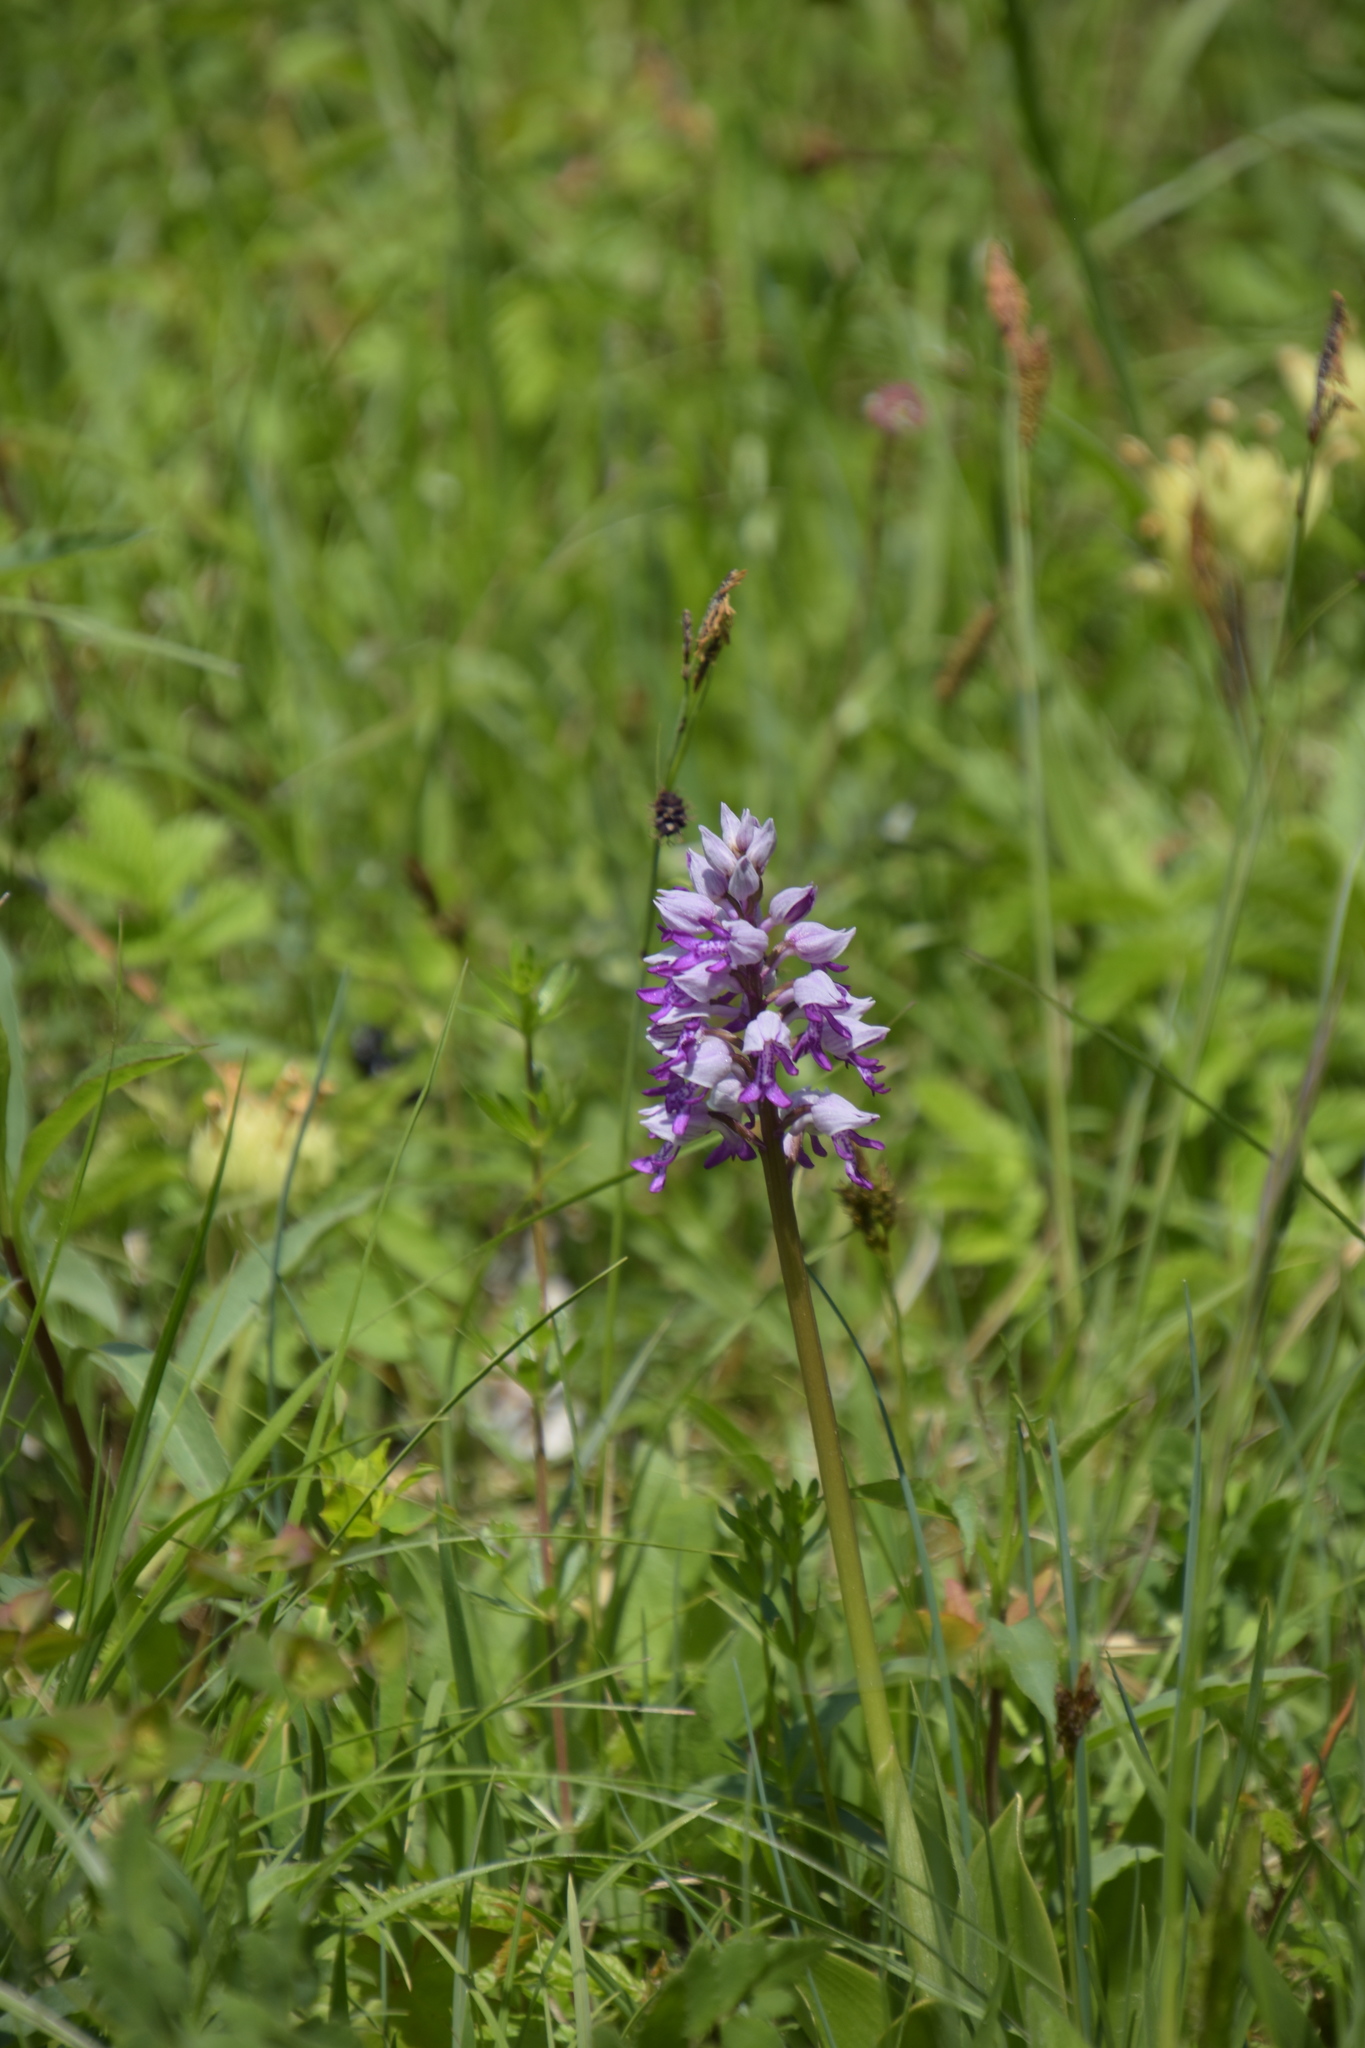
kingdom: Plantae
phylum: Tracheophyta
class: Liliopsida
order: Asparagales
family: Orchidaceae
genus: Orchis
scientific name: Orchis militaris
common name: Military orchid
